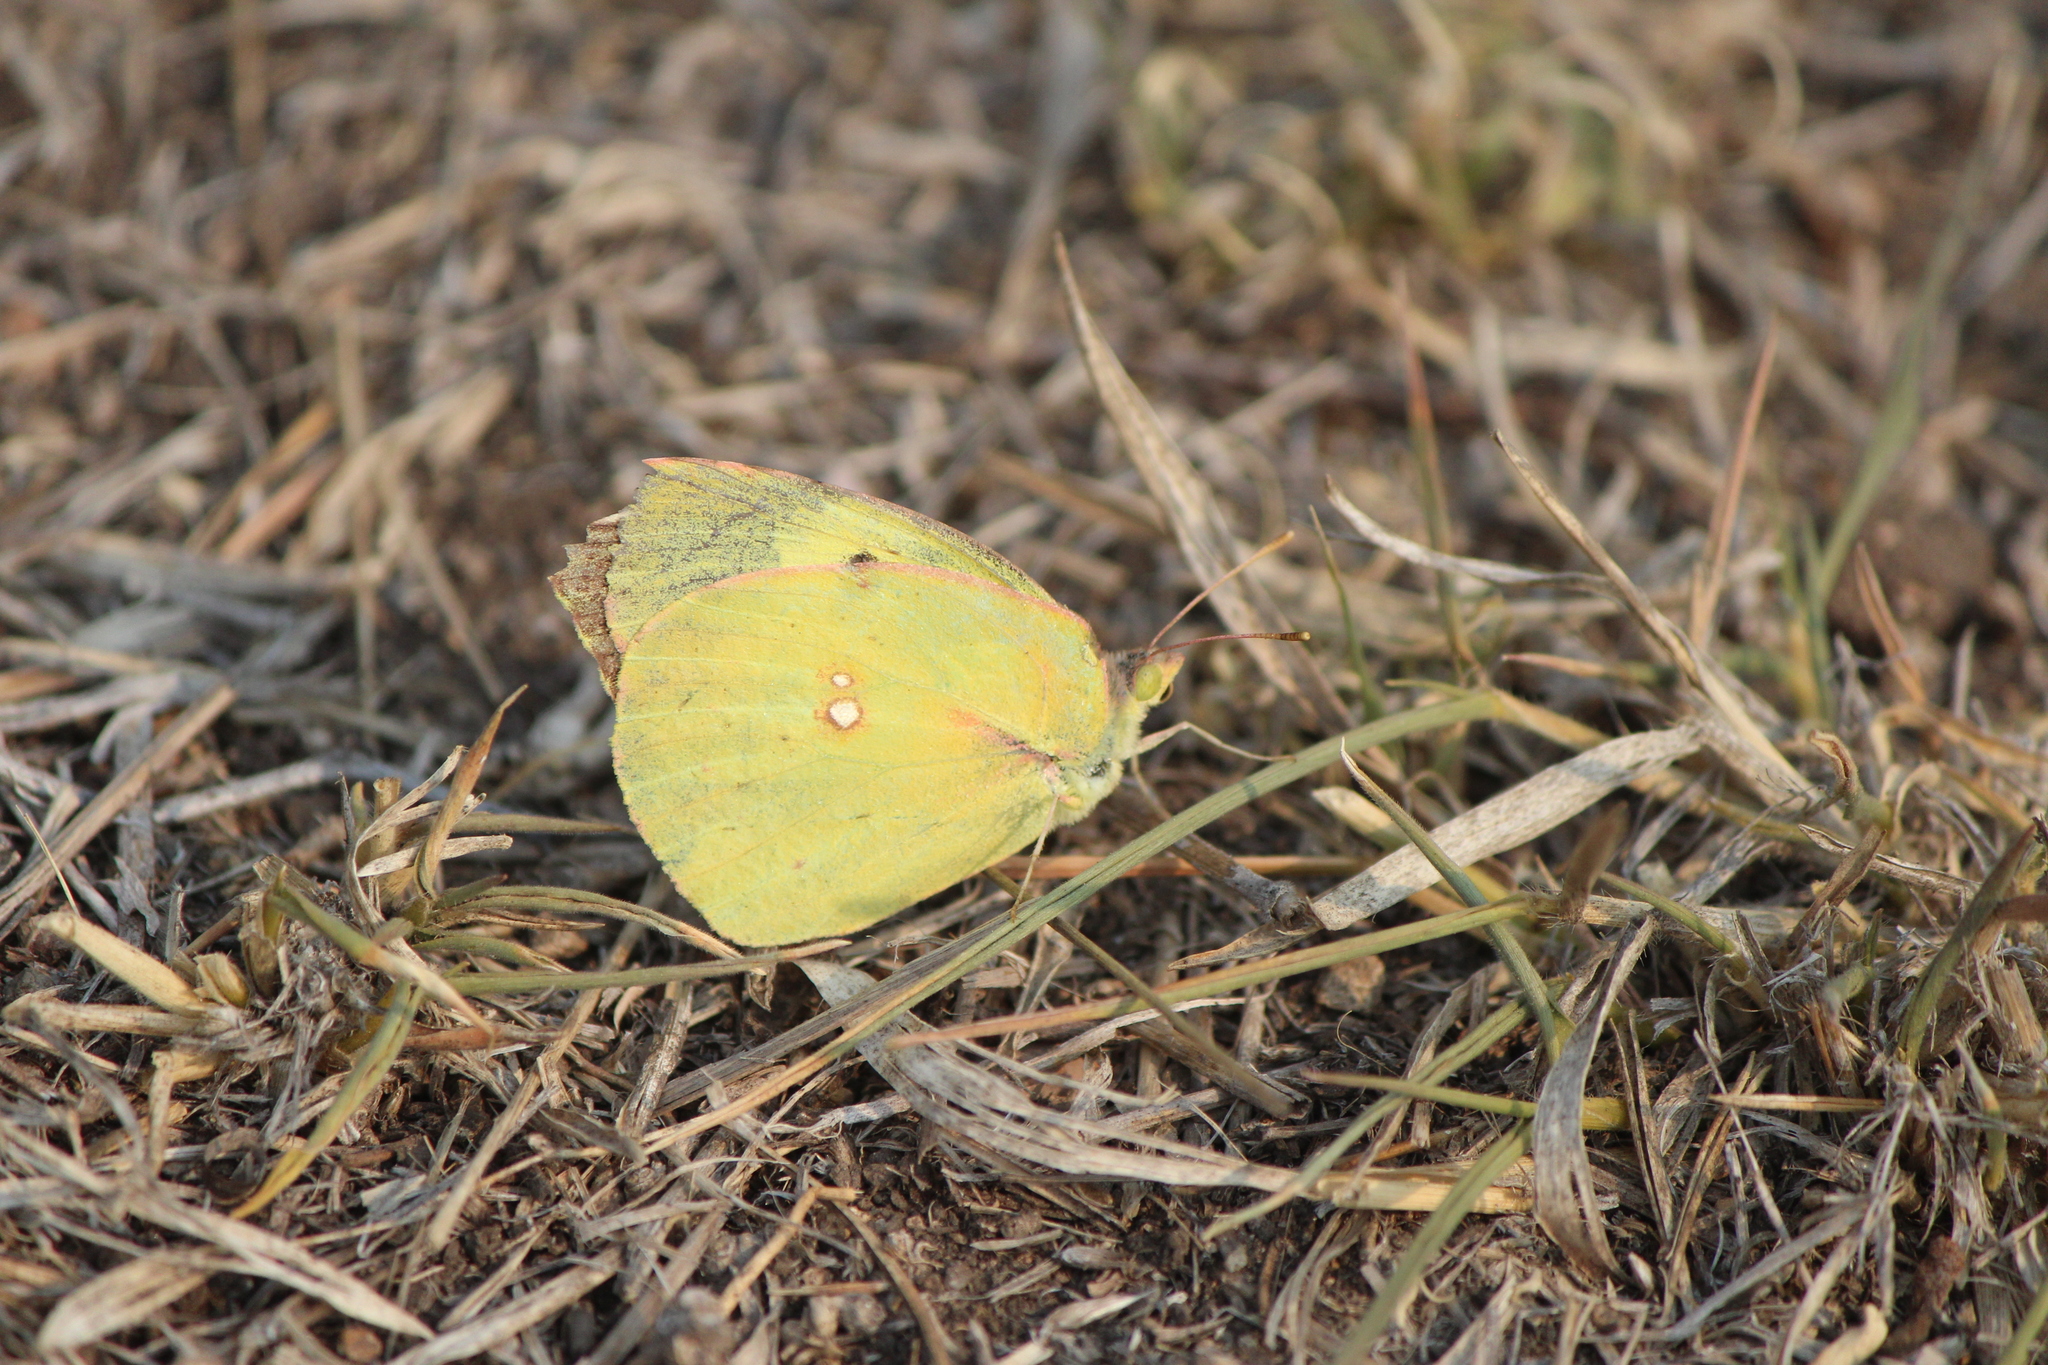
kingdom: Animalia
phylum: Arthropoda
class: Insecta
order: Lepidoptera
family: Pieridae
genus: Zerene
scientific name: Zerene cesonia
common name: Southern dogface
